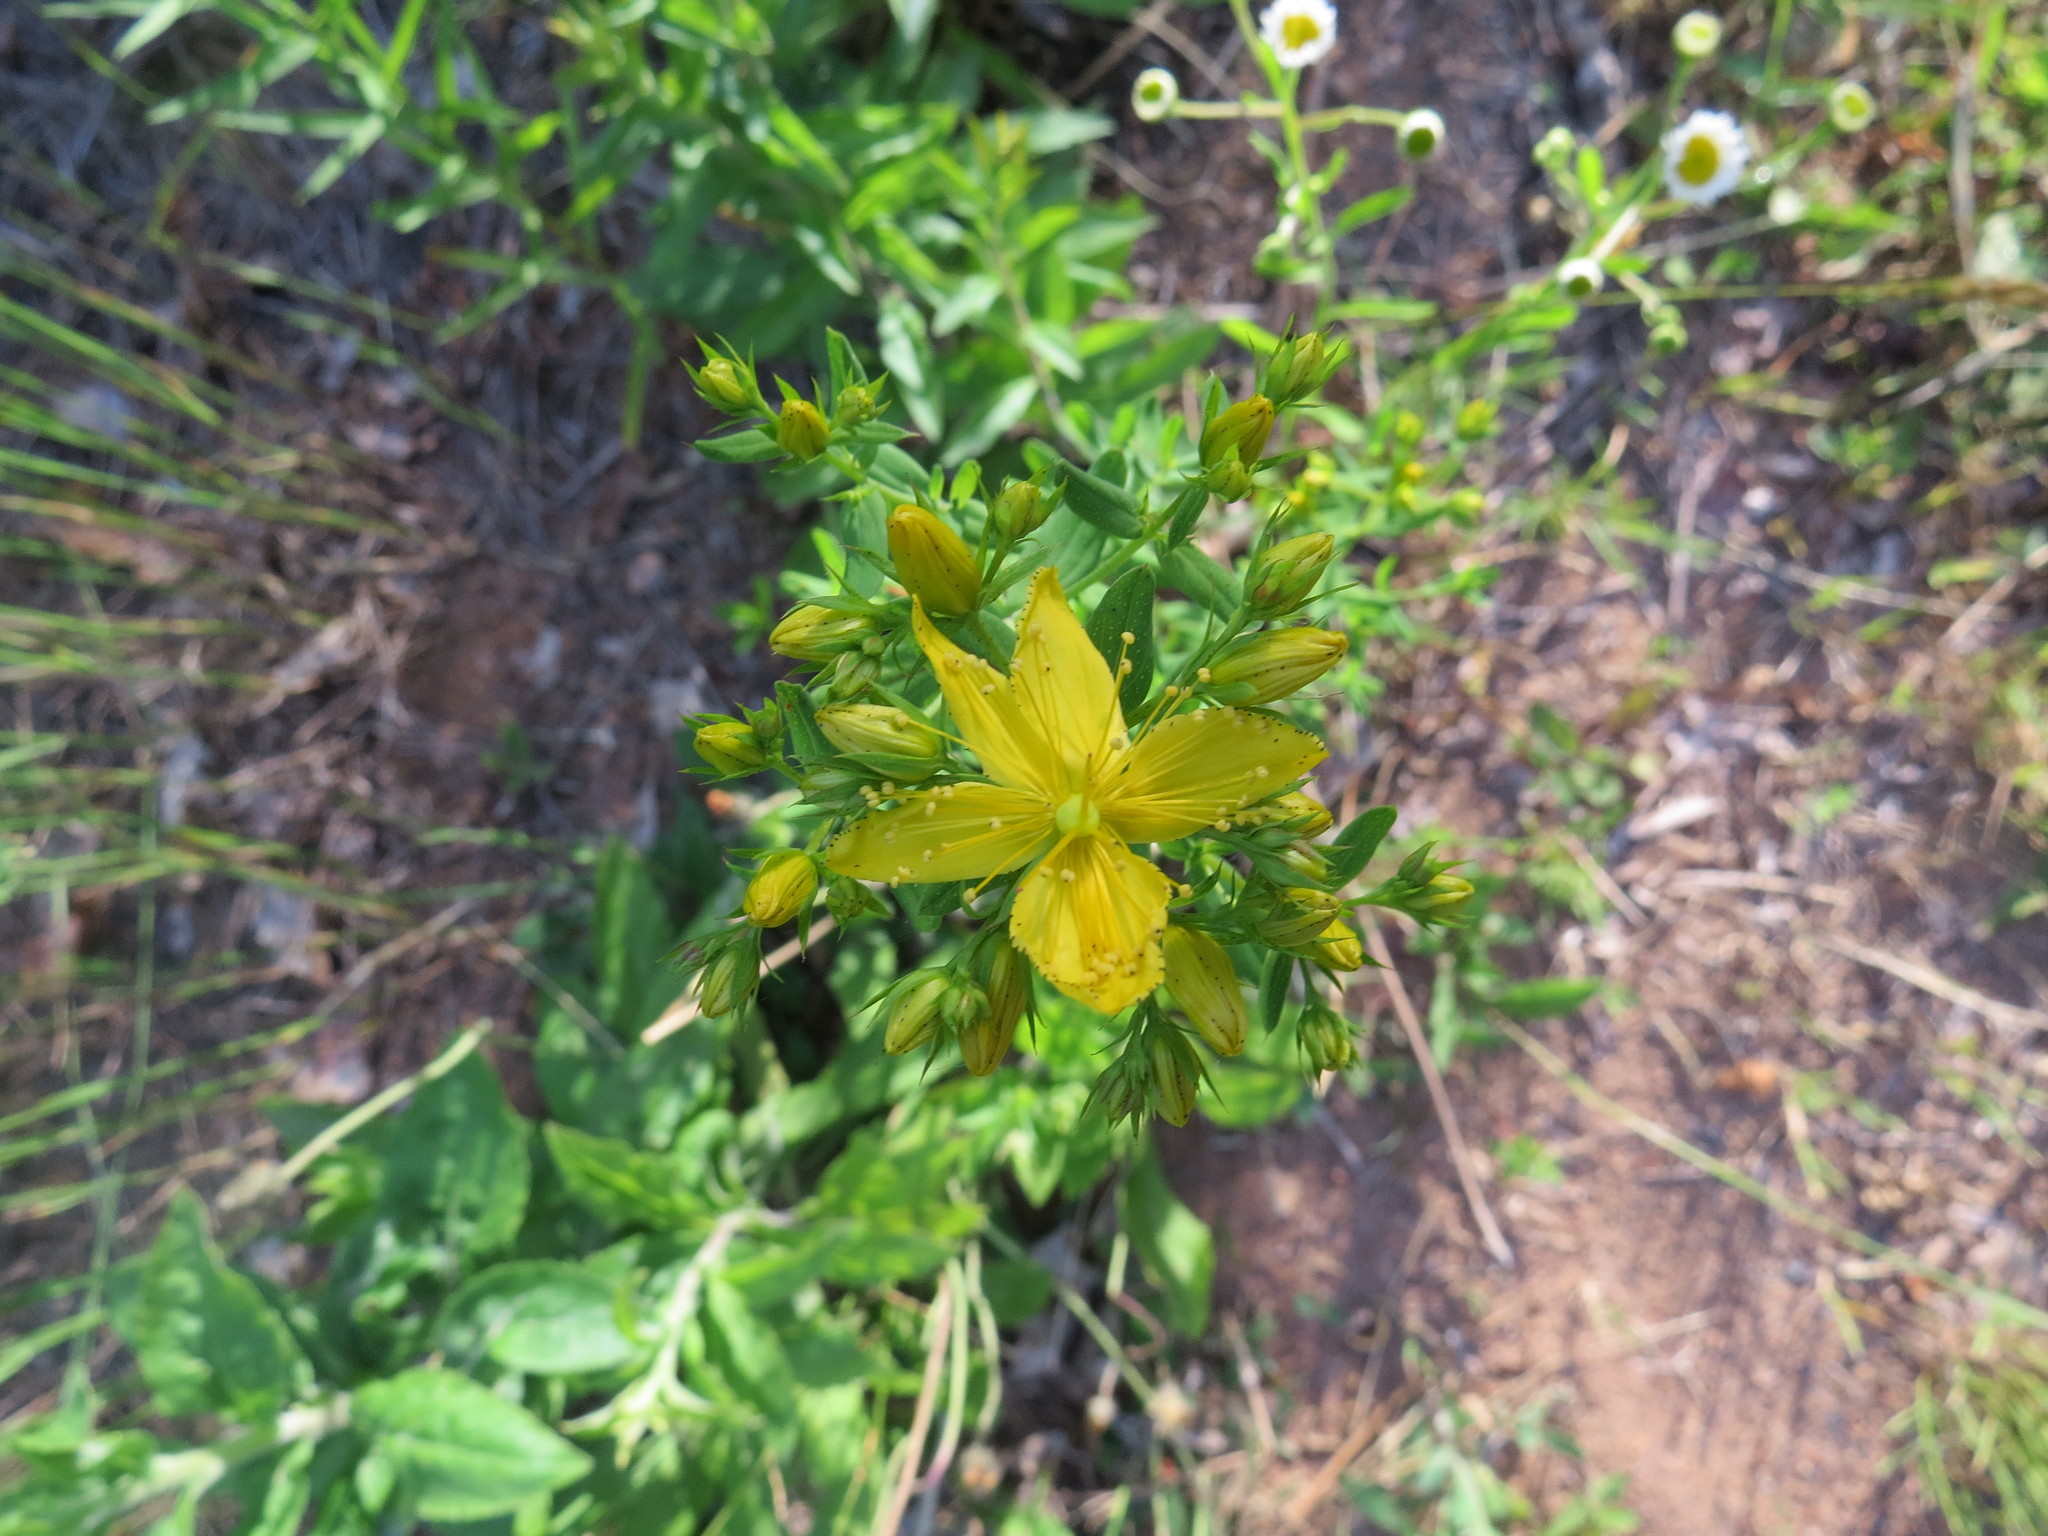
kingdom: Plantae
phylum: Tracheophyta
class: Magnoliopsida
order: Malpighiales
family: Hypericaceae
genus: Hypericum
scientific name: Hypericum perforatum
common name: Common st. johnswort
